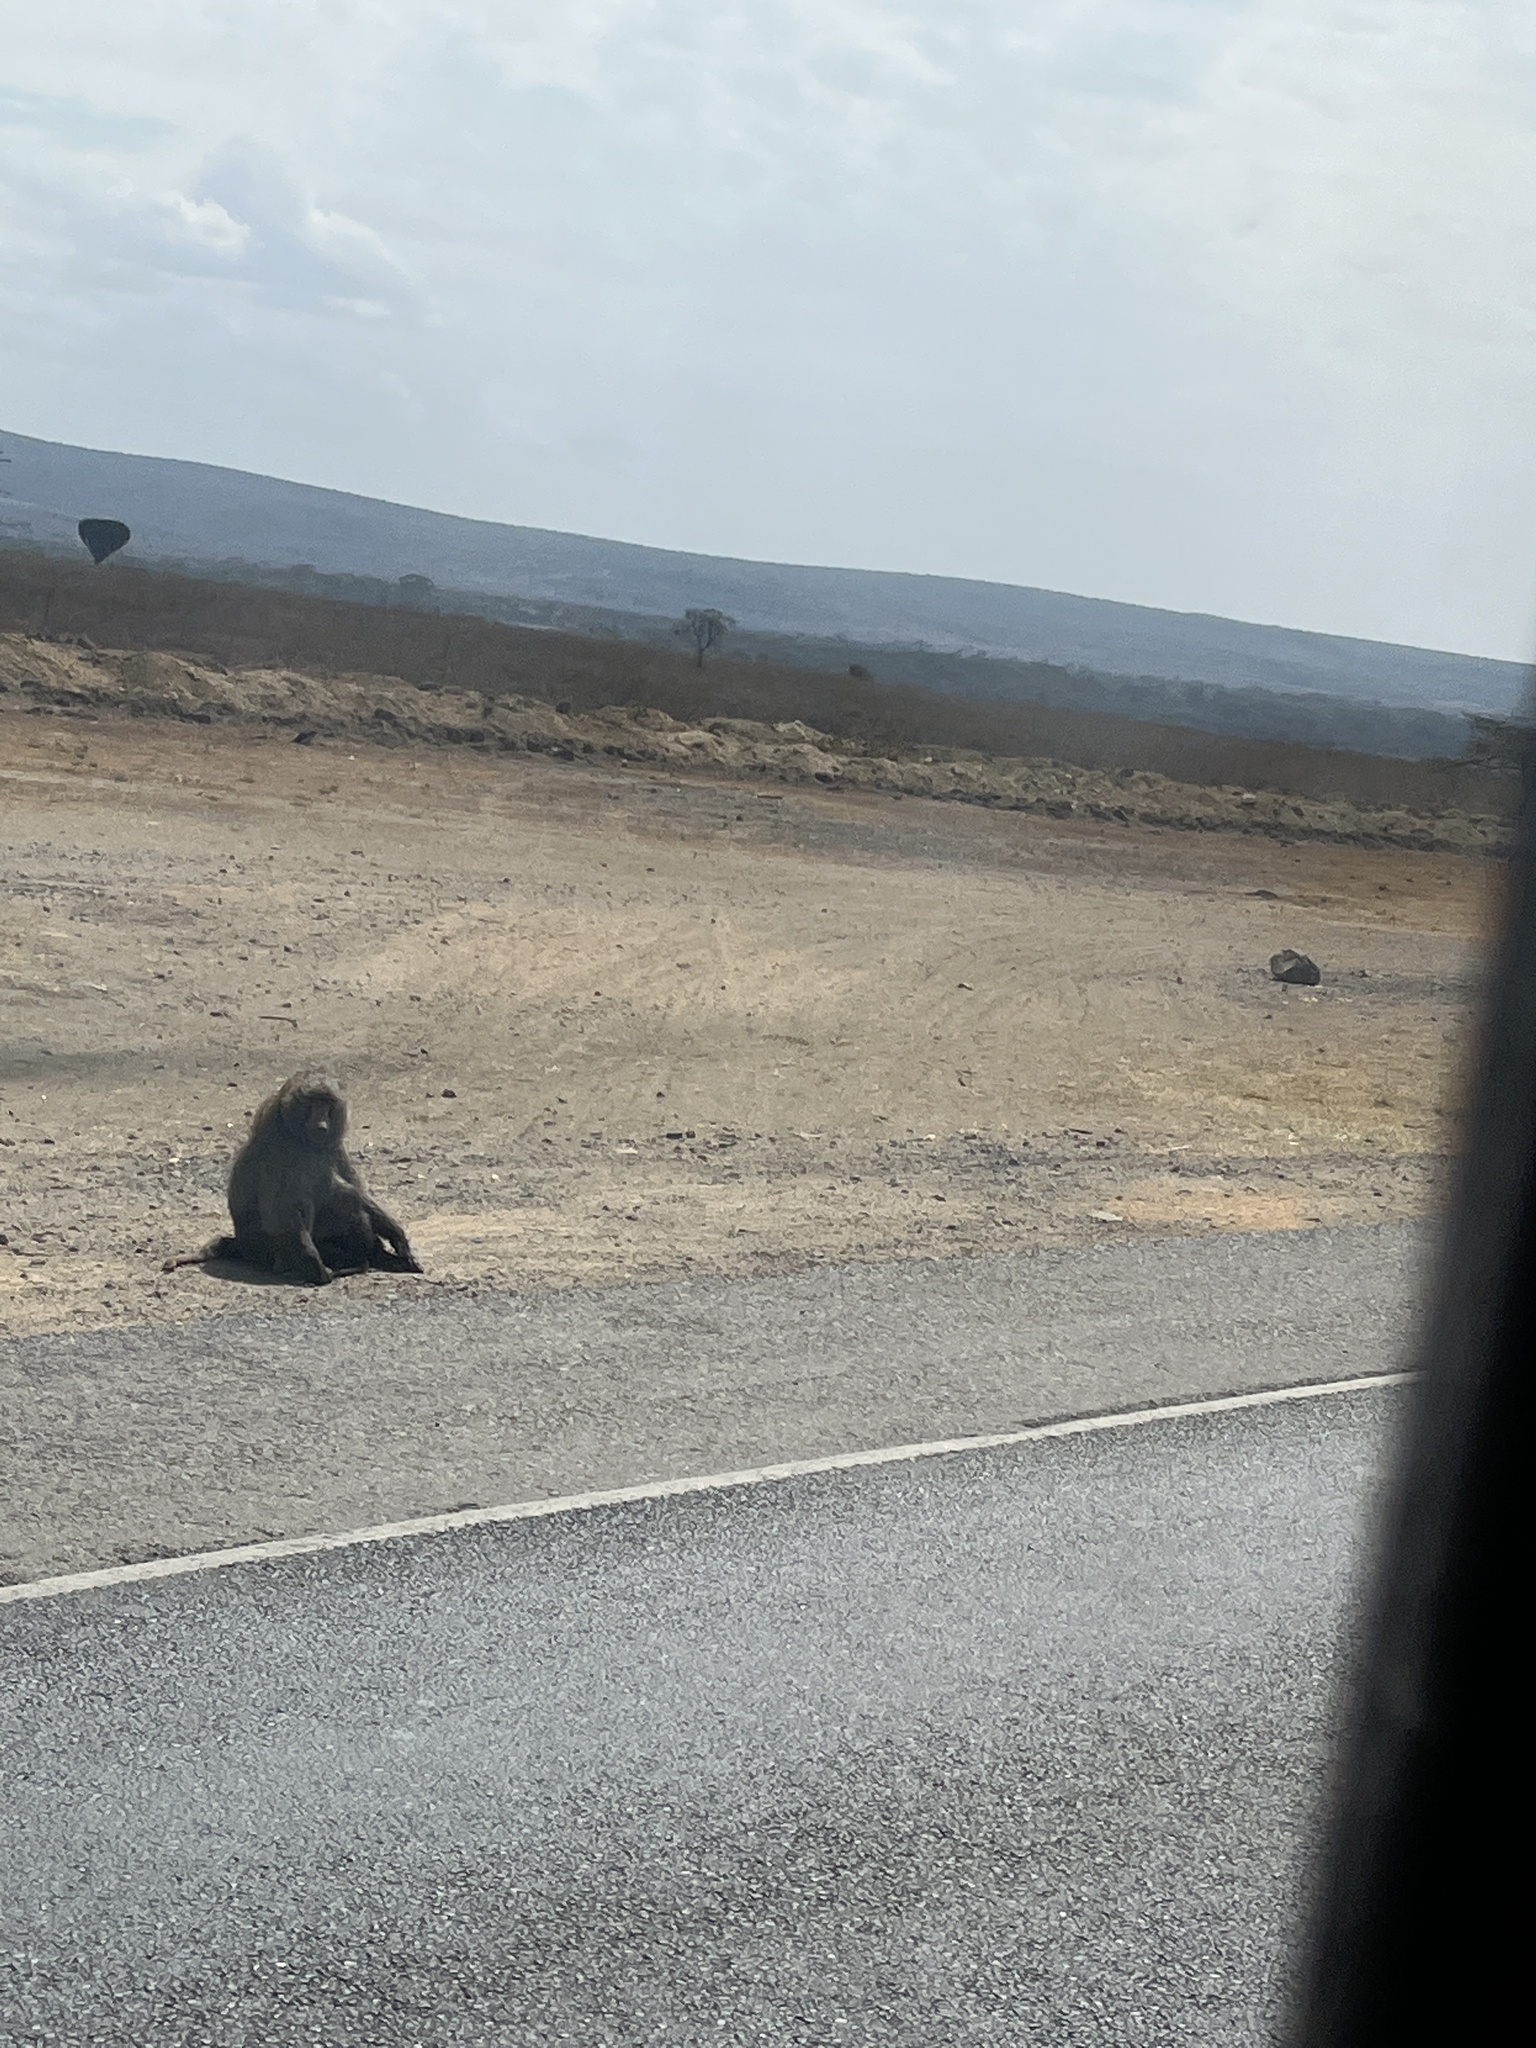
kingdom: Animalia
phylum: Chordata
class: Mammalia
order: Primates
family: Cercopithecidae
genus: Papio
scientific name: Papio anubis
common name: Olive baboon
